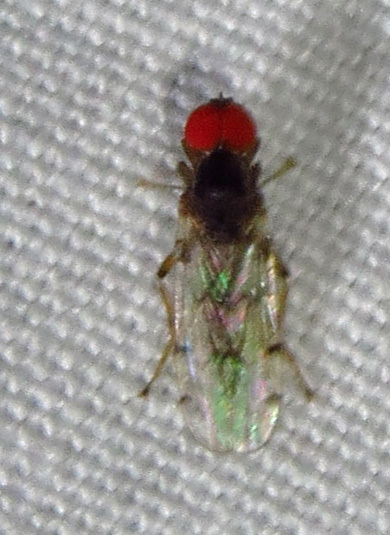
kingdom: Animalia
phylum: Arthropoda
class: Insecta
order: Diptera
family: Hybotidae
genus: Syneches
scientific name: Syneches simplex
